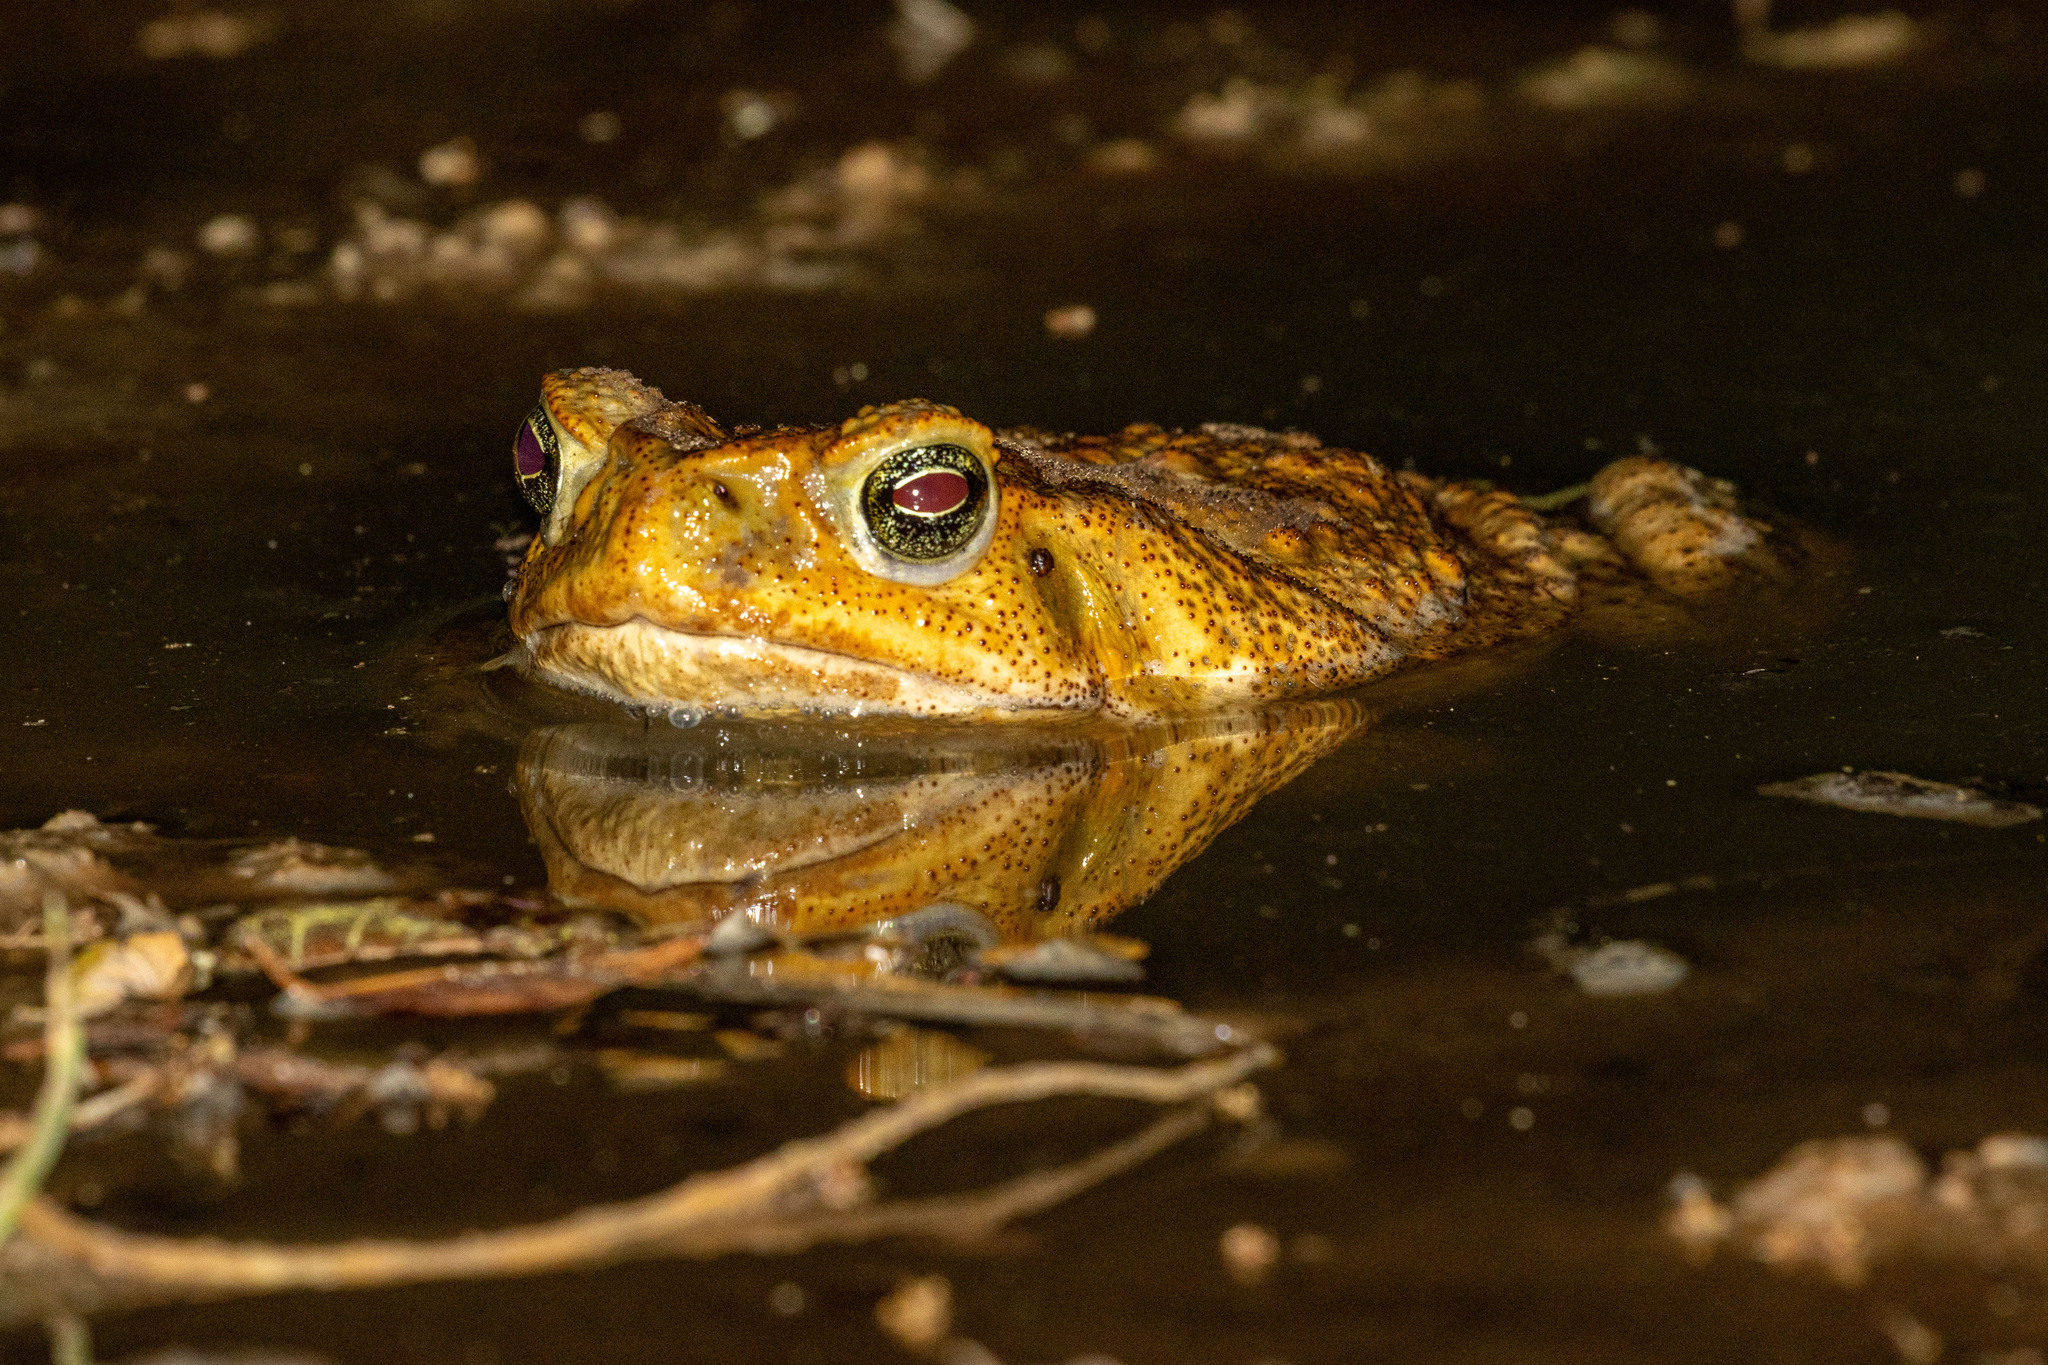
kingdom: Animalia
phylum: Chordata
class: Amphibia
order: Anura
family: Bufonidae
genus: Rhinella
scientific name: Rhinella diptycha
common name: Cope's toad
